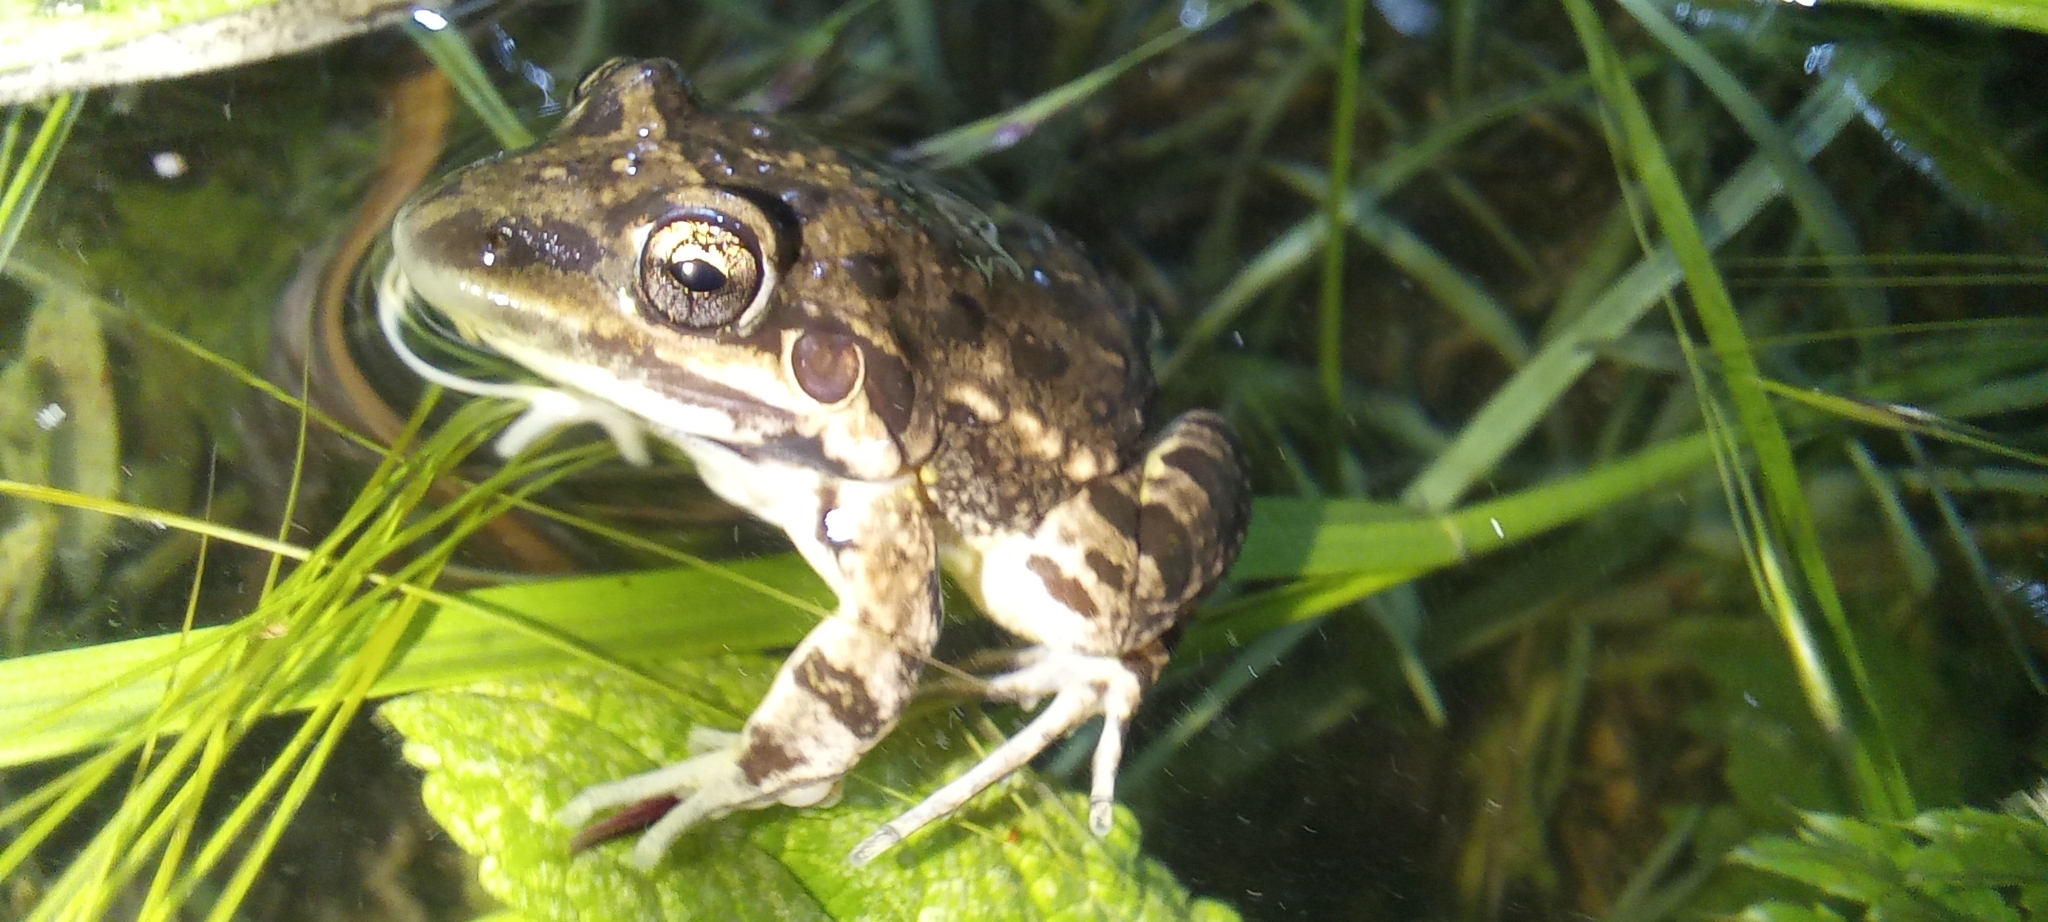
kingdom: Animalia
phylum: Chordata
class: Amphibia
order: Anura
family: Leptodactylidae
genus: Leptodactylus
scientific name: Leptodactylus latinasus
